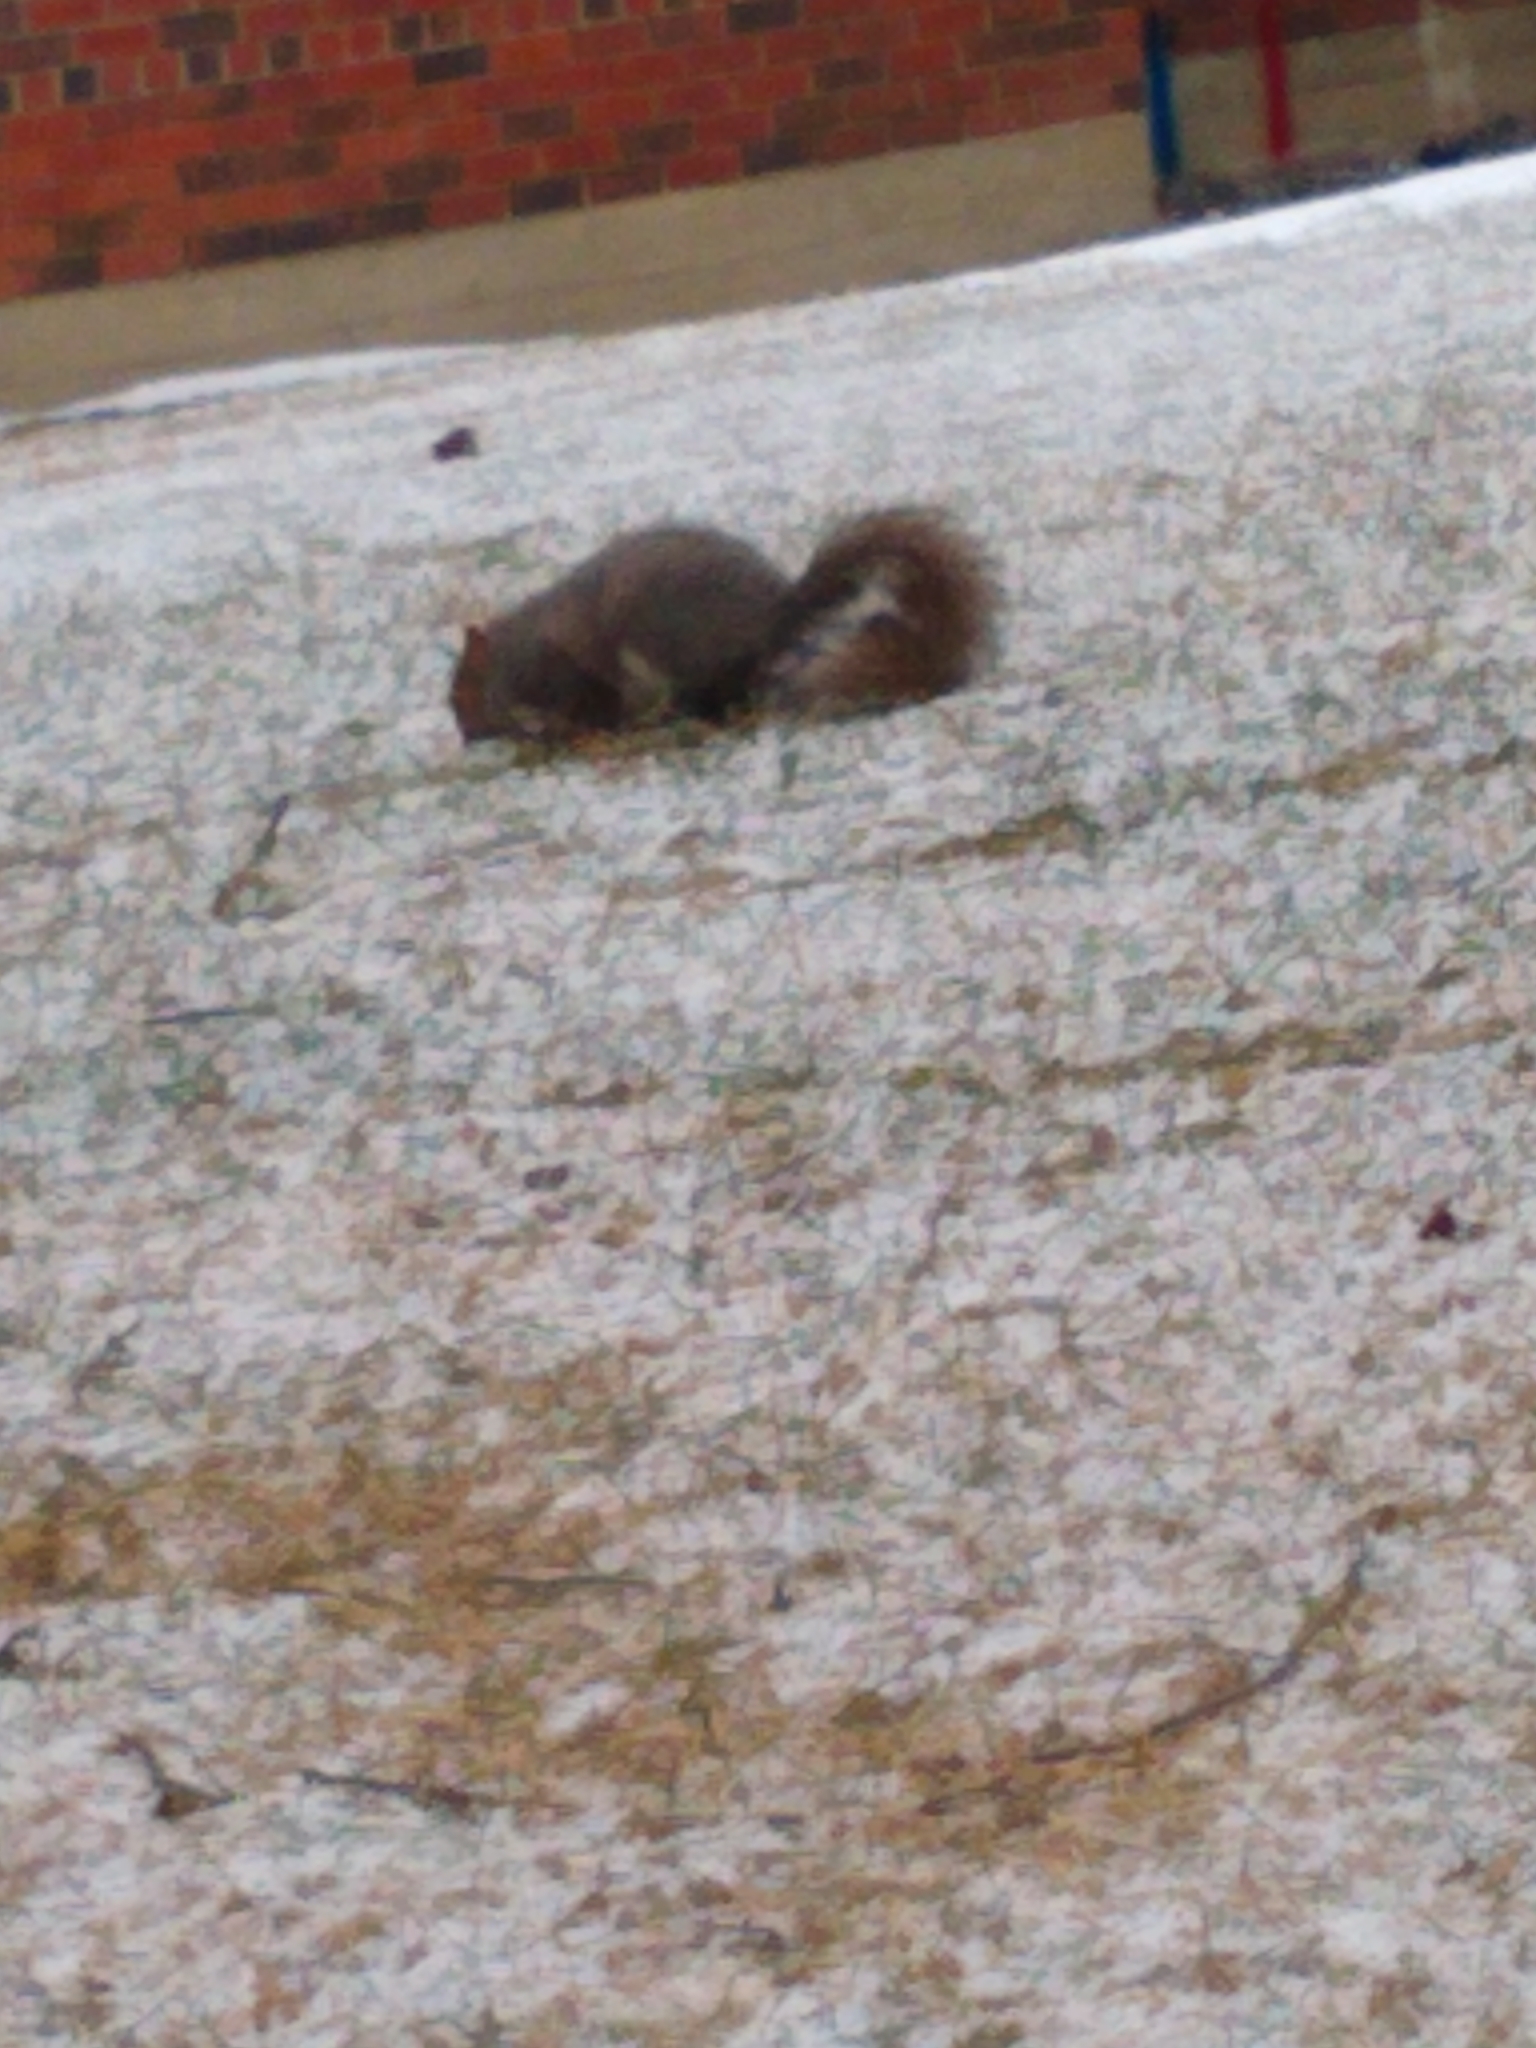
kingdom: Animalia
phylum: Chordata
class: Mammalia
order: Rodentia
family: Sciuridae
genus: Sciurus
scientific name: Sciurus carolinensis
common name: Eastern gray squirrel
